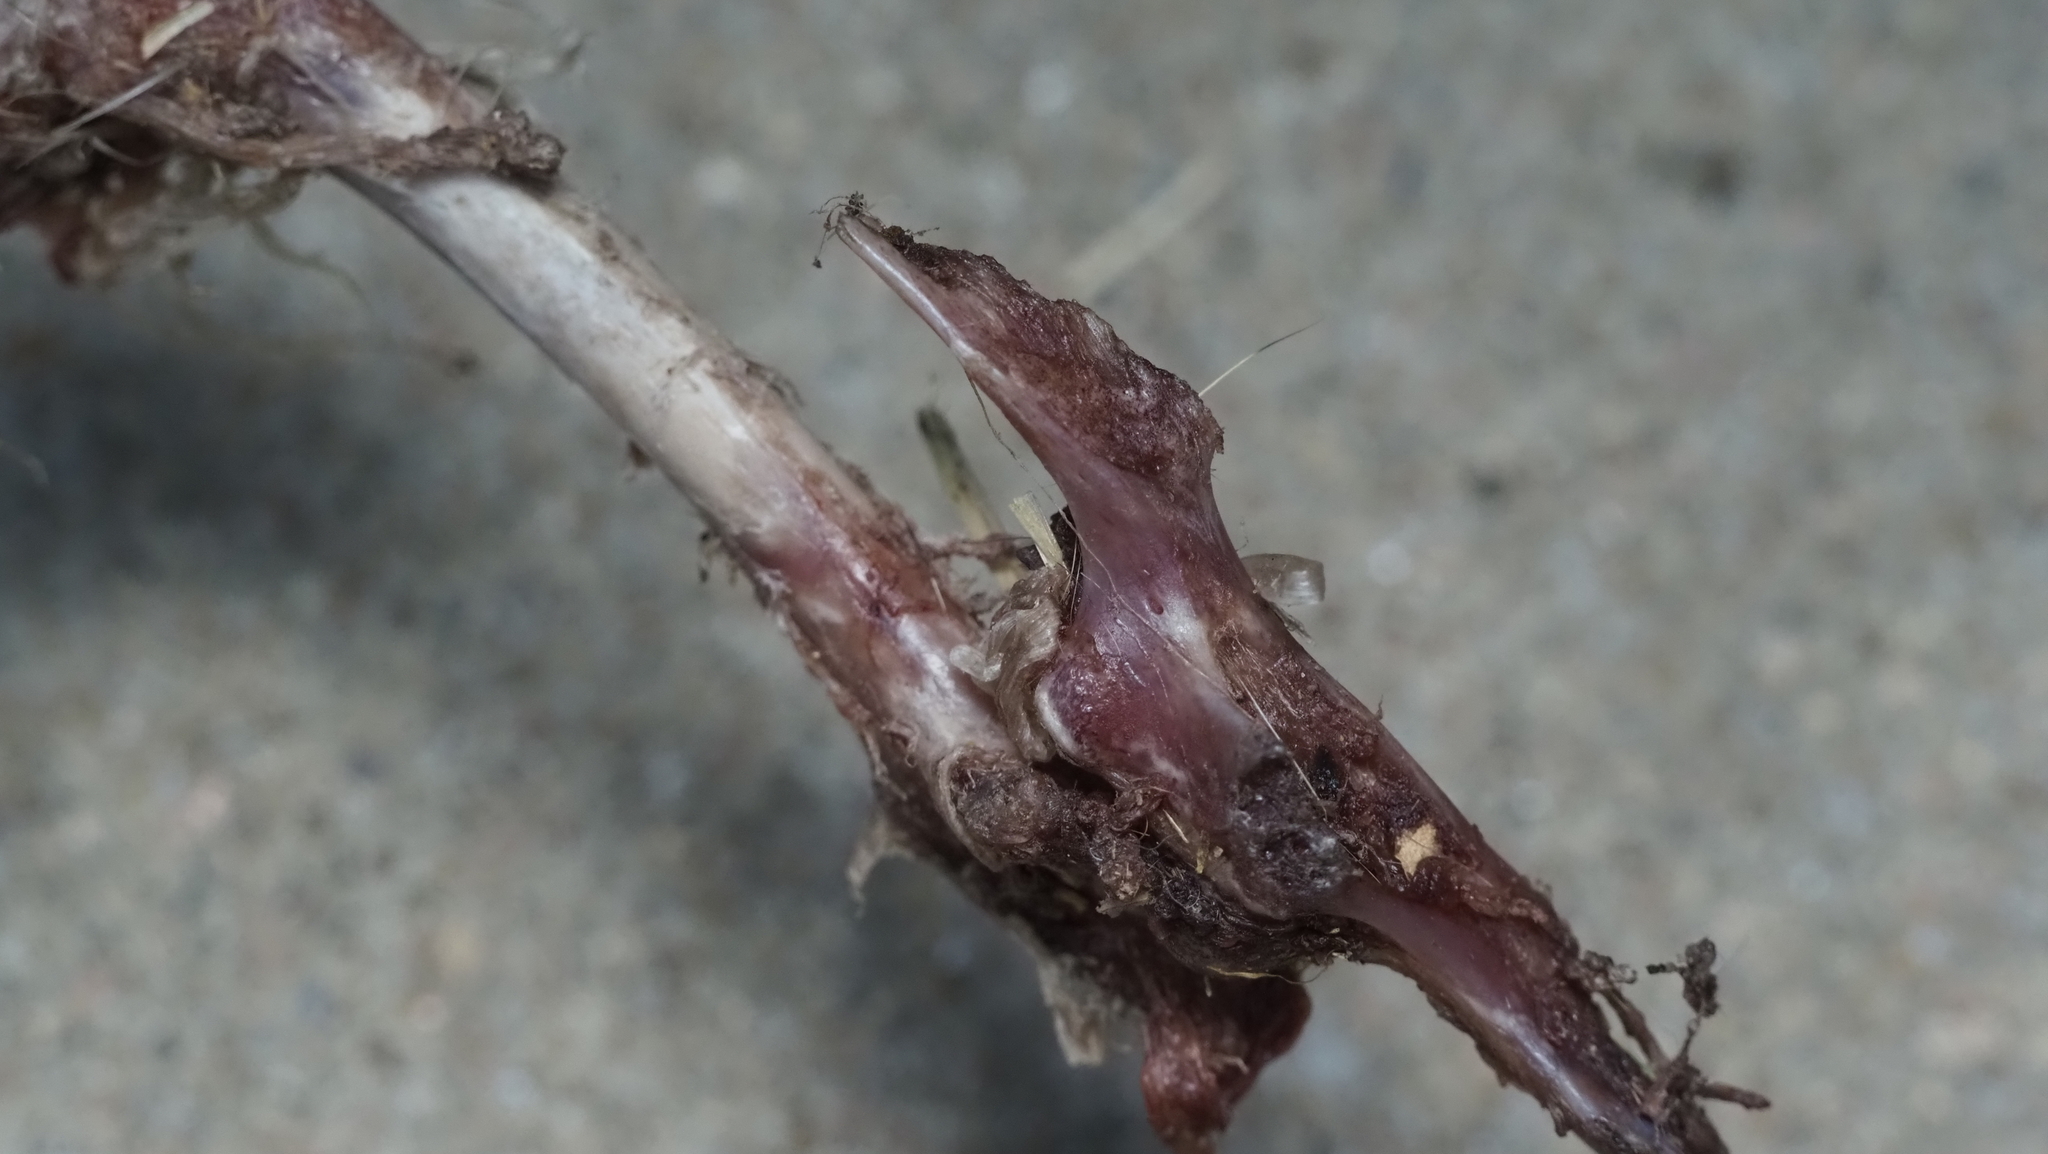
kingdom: Animalia
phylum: Chordata
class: Mammalia
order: Rodentia
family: Sciuridae
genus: Sciurus
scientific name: Sciurus niger
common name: Fox squirrel
